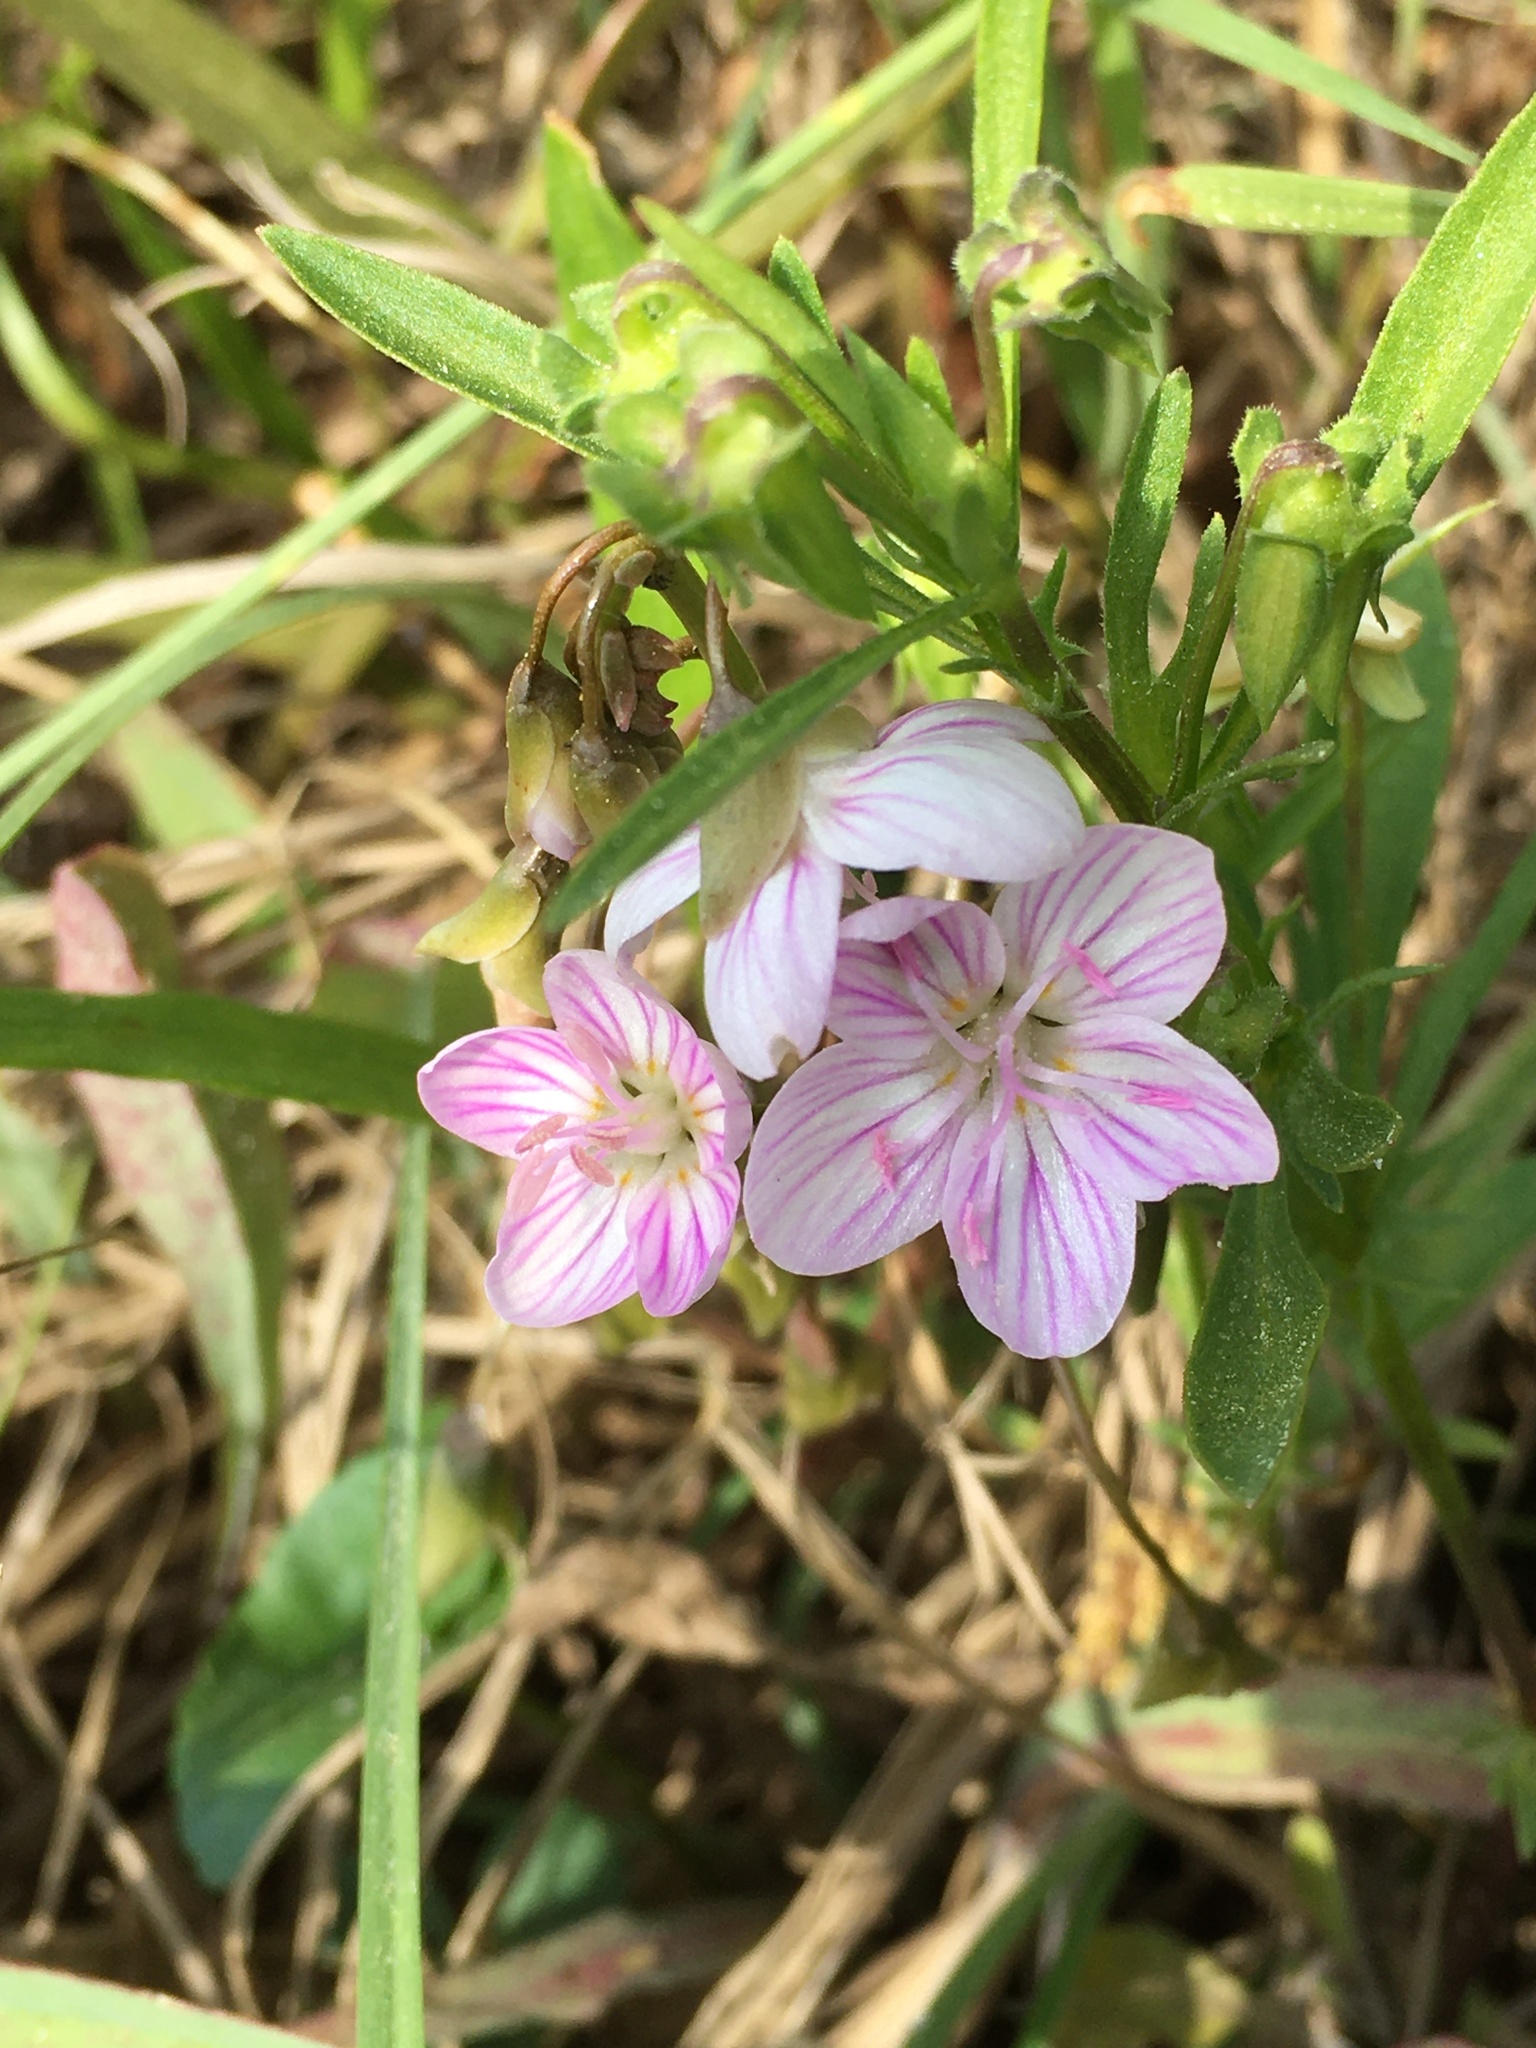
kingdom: Plantae
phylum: Tracheophyta
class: Magnoliopsida
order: Caryophyllales
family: Montiaceae
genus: Claytonia
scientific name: Claytonia virginica
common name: Virginia springbeauty
